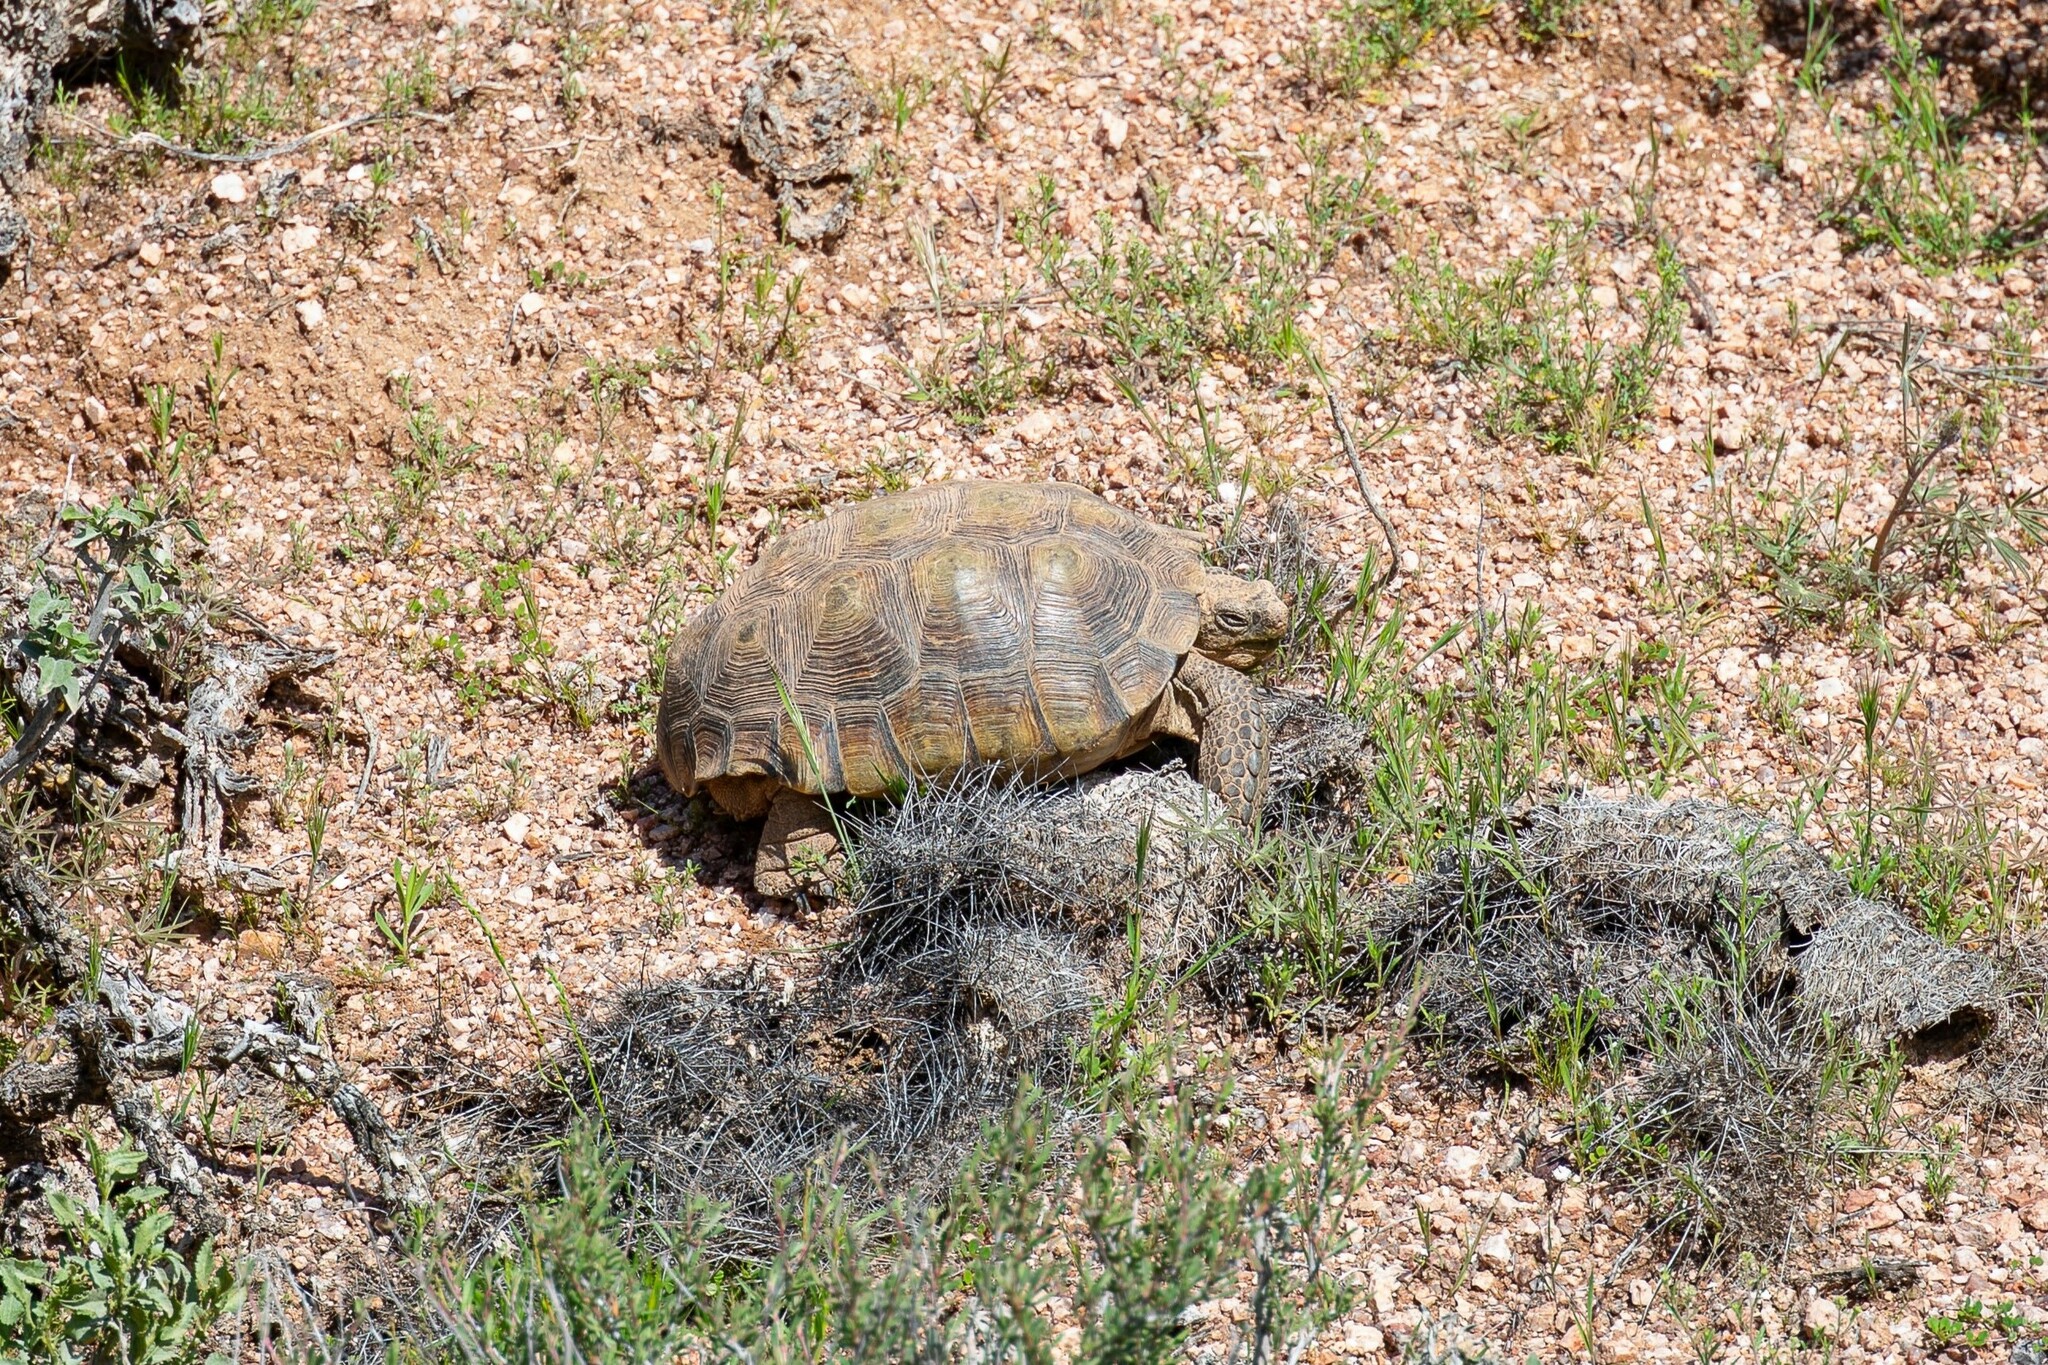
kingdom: Animalia
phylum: Chordata
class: Testudines
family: Testudinidae
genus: Gopherus
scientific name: Gopherus morafkai
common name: Sonoran desert tortoise
